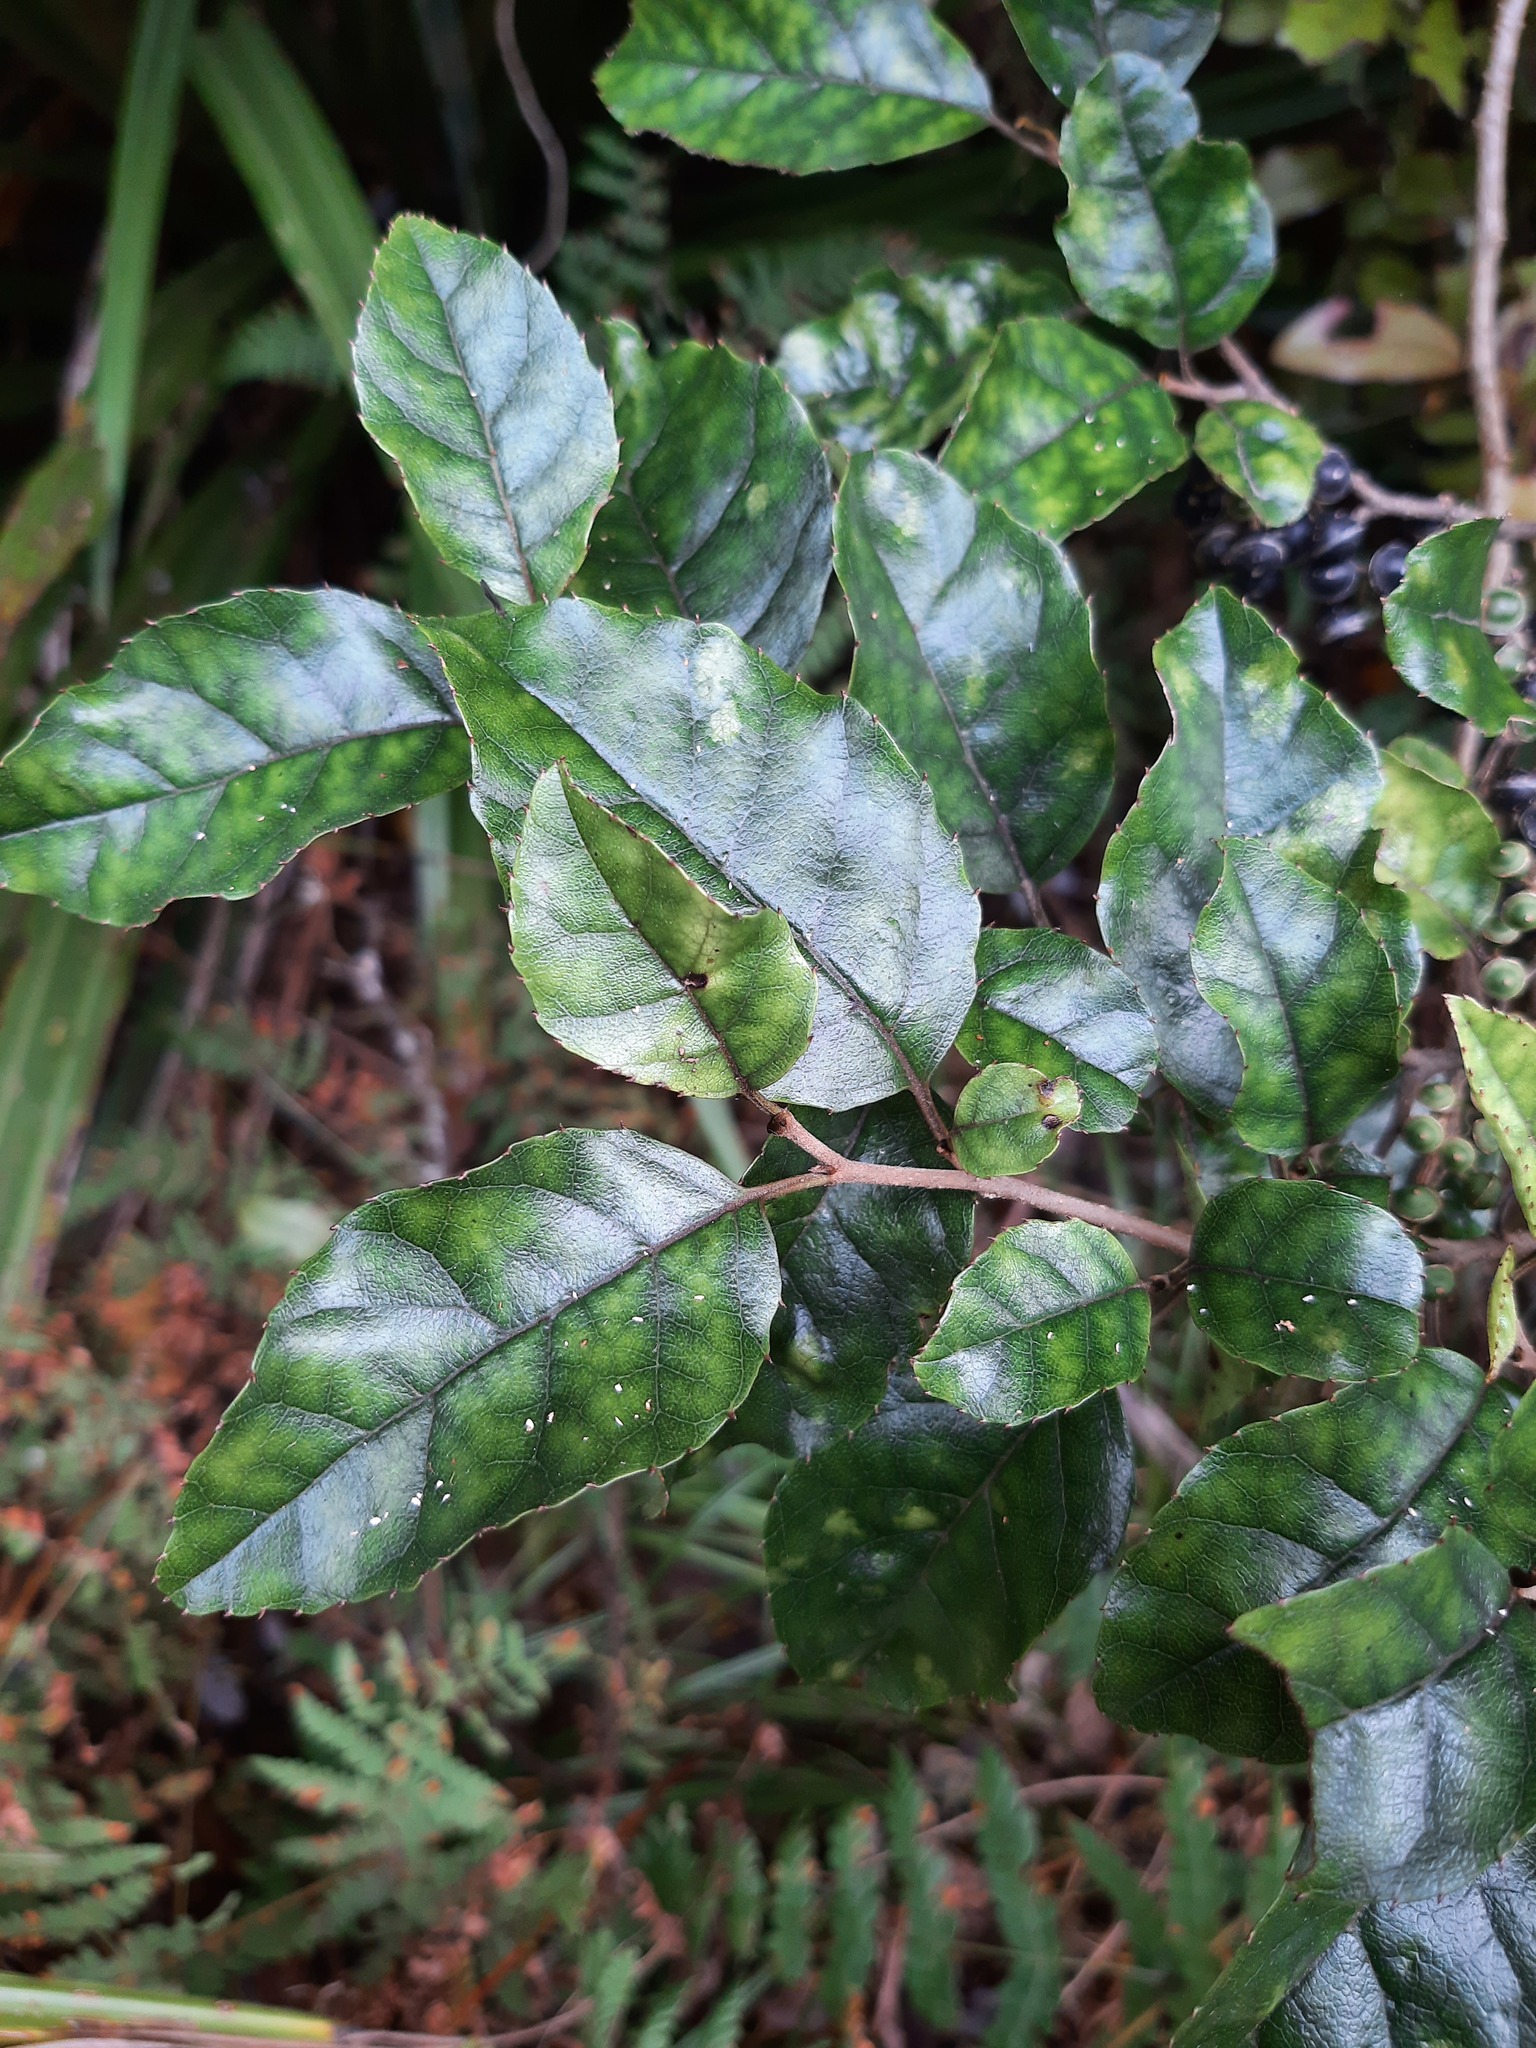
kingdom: Plantae
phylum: Tracheophyta
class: Magnoliopsida
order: Asterales
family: Rousseaceae
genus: Carpodetus
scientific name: Carpodetus serratus
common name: White mapau
